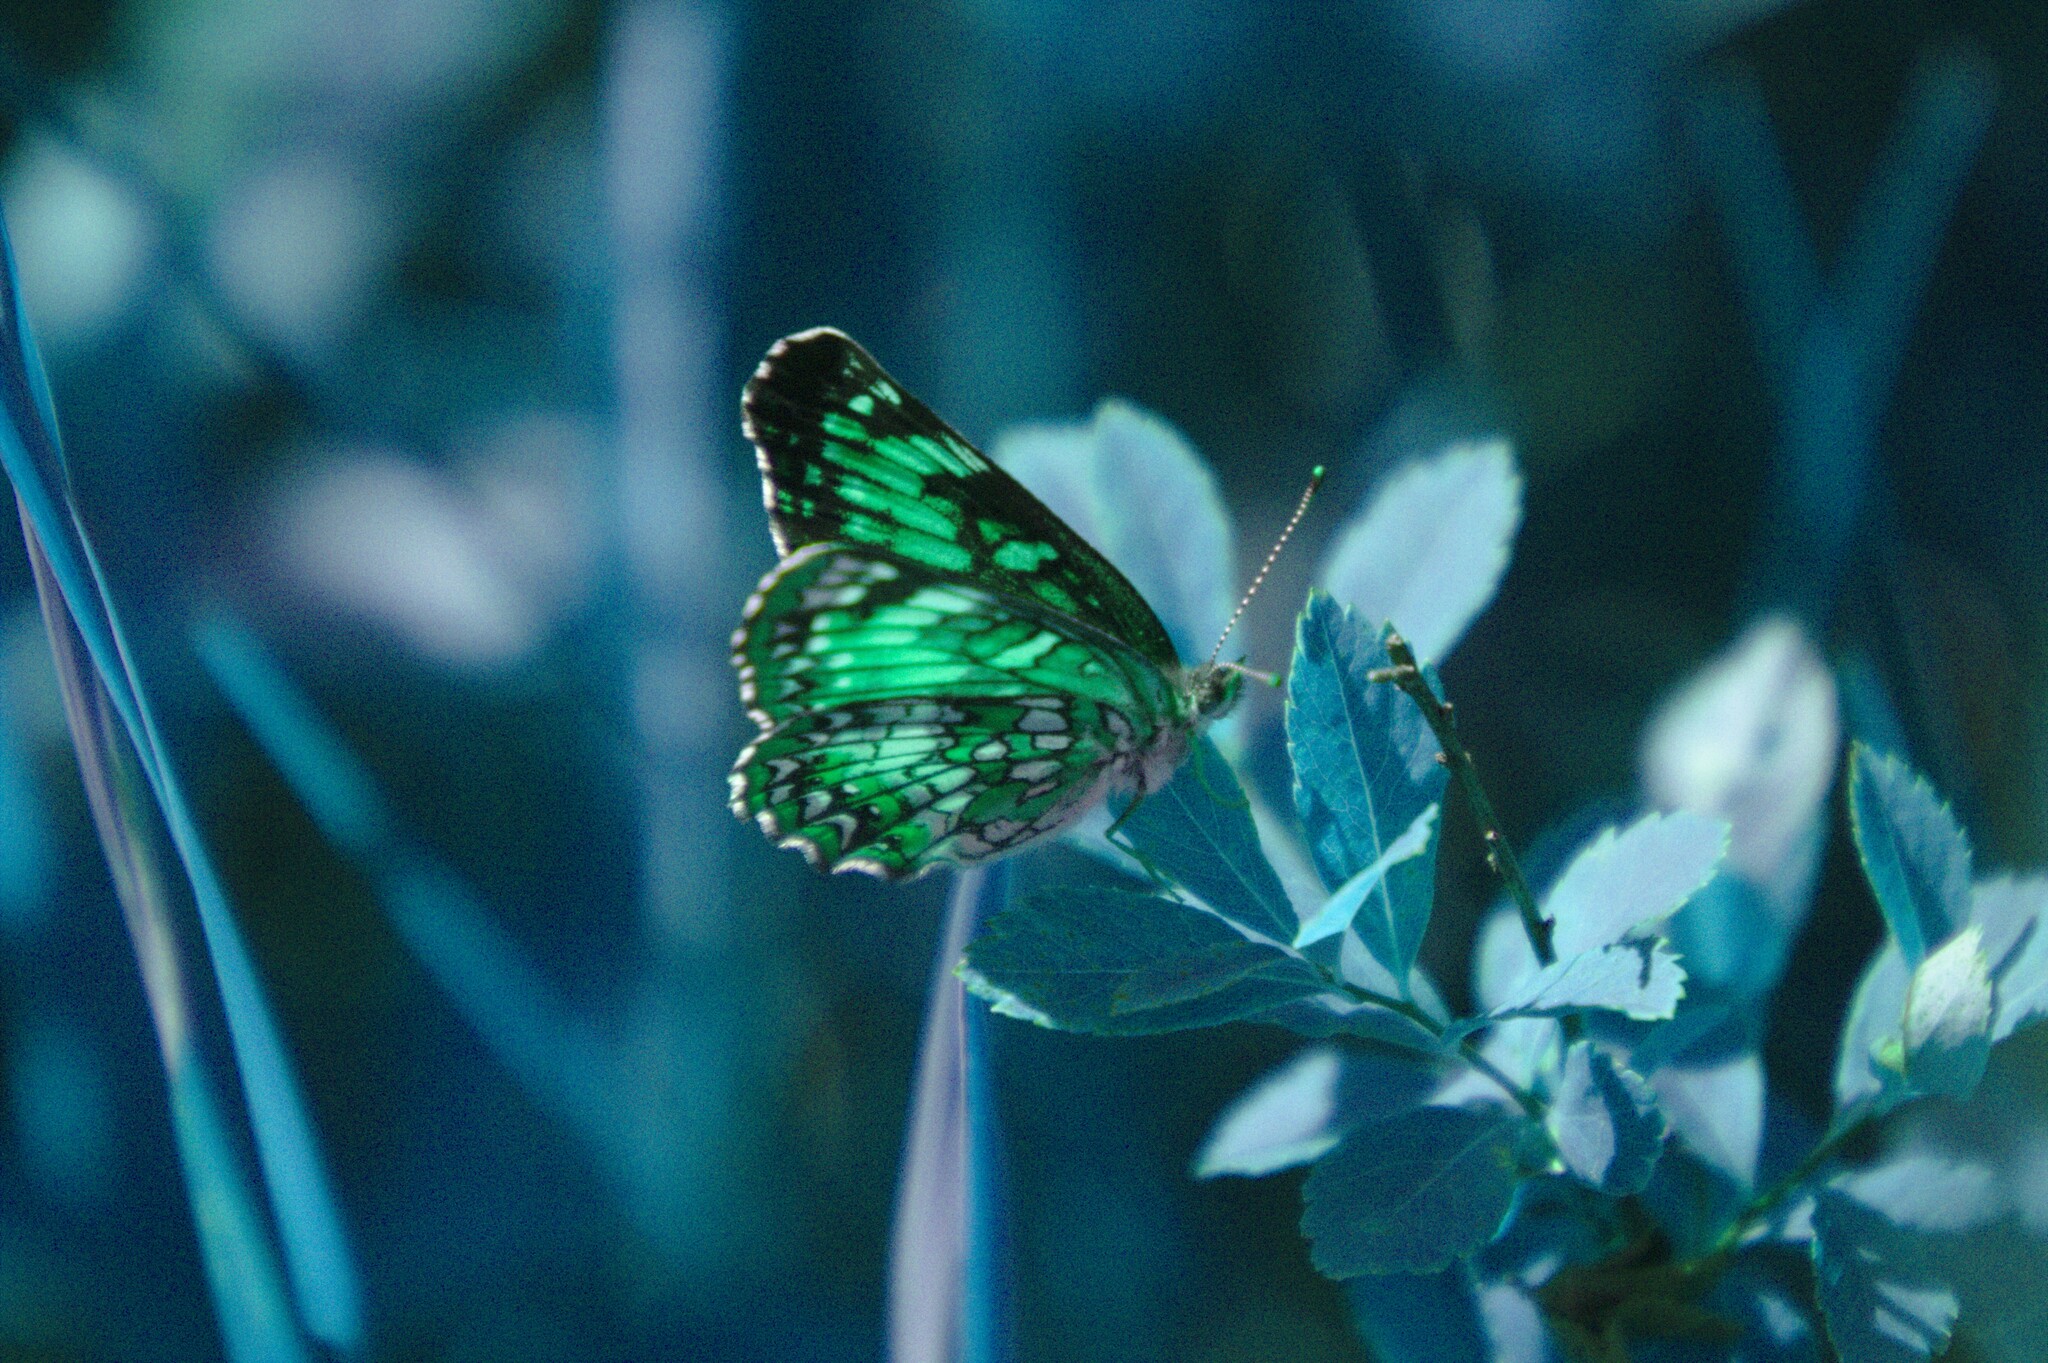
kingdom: Animalia
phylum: Arthropoda
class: Insecta
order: Lepidoptera
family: Nymphalidae
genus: Chlosyne
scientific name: Chlosyne harrisii
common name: Harris's checkerspot
